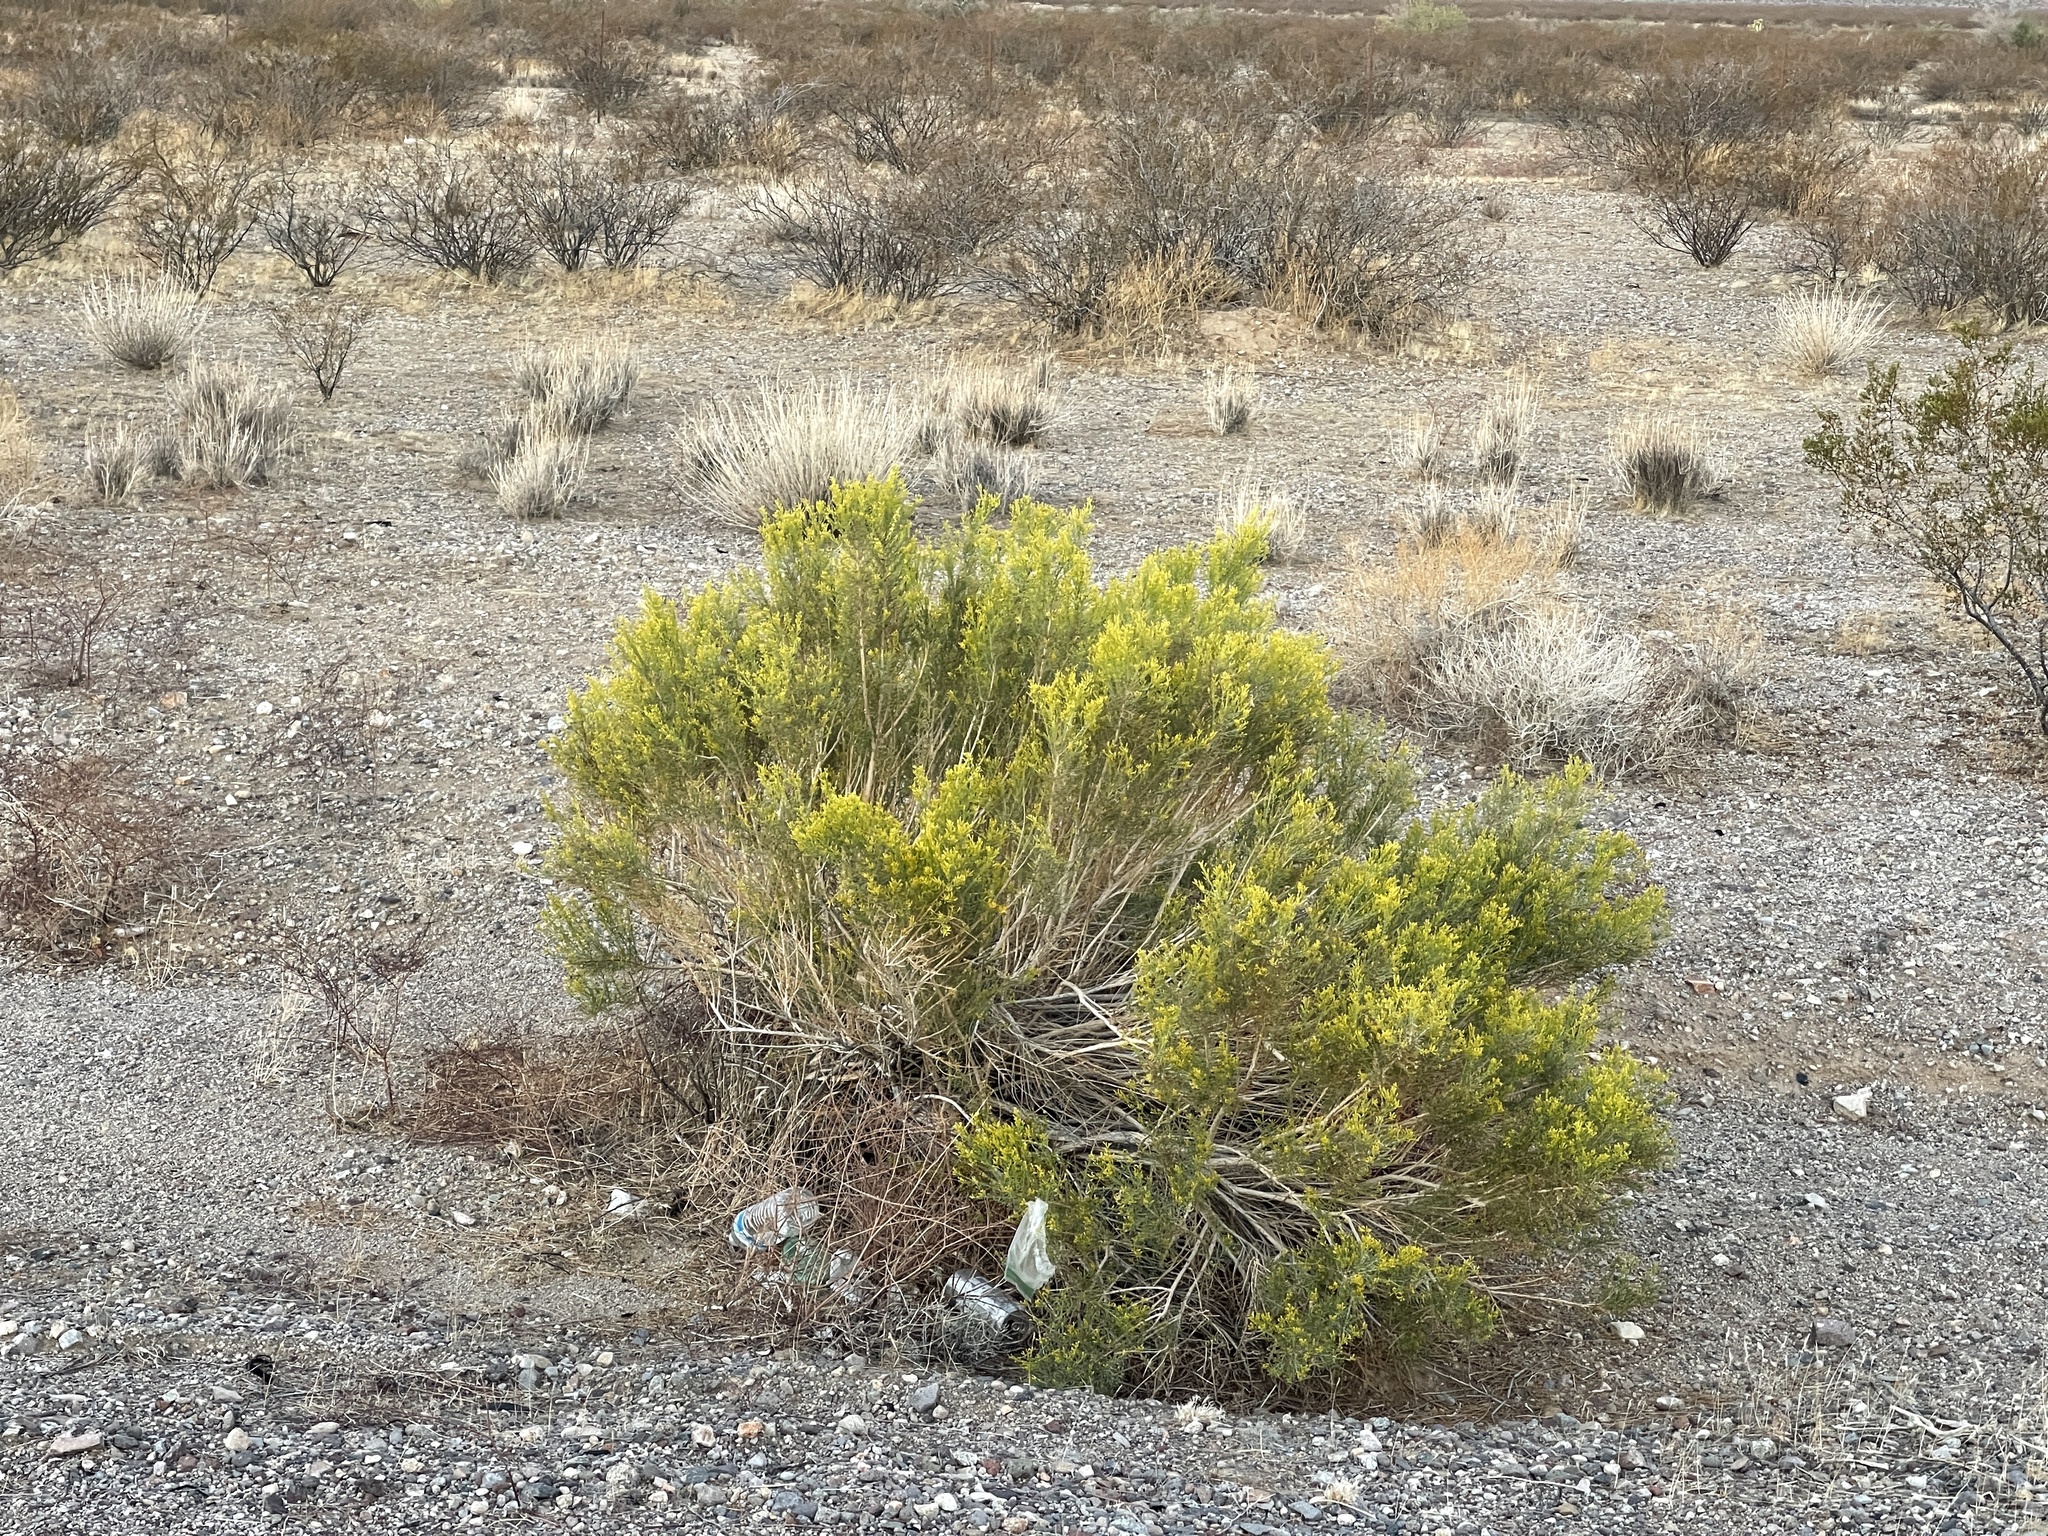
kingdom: Plantae
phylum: Tracheophyta
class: Magnoliopsida
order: Asterales
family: Asteraceae
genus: Baccharis
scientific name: Baccharis sarothroides
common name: Desert-broom
